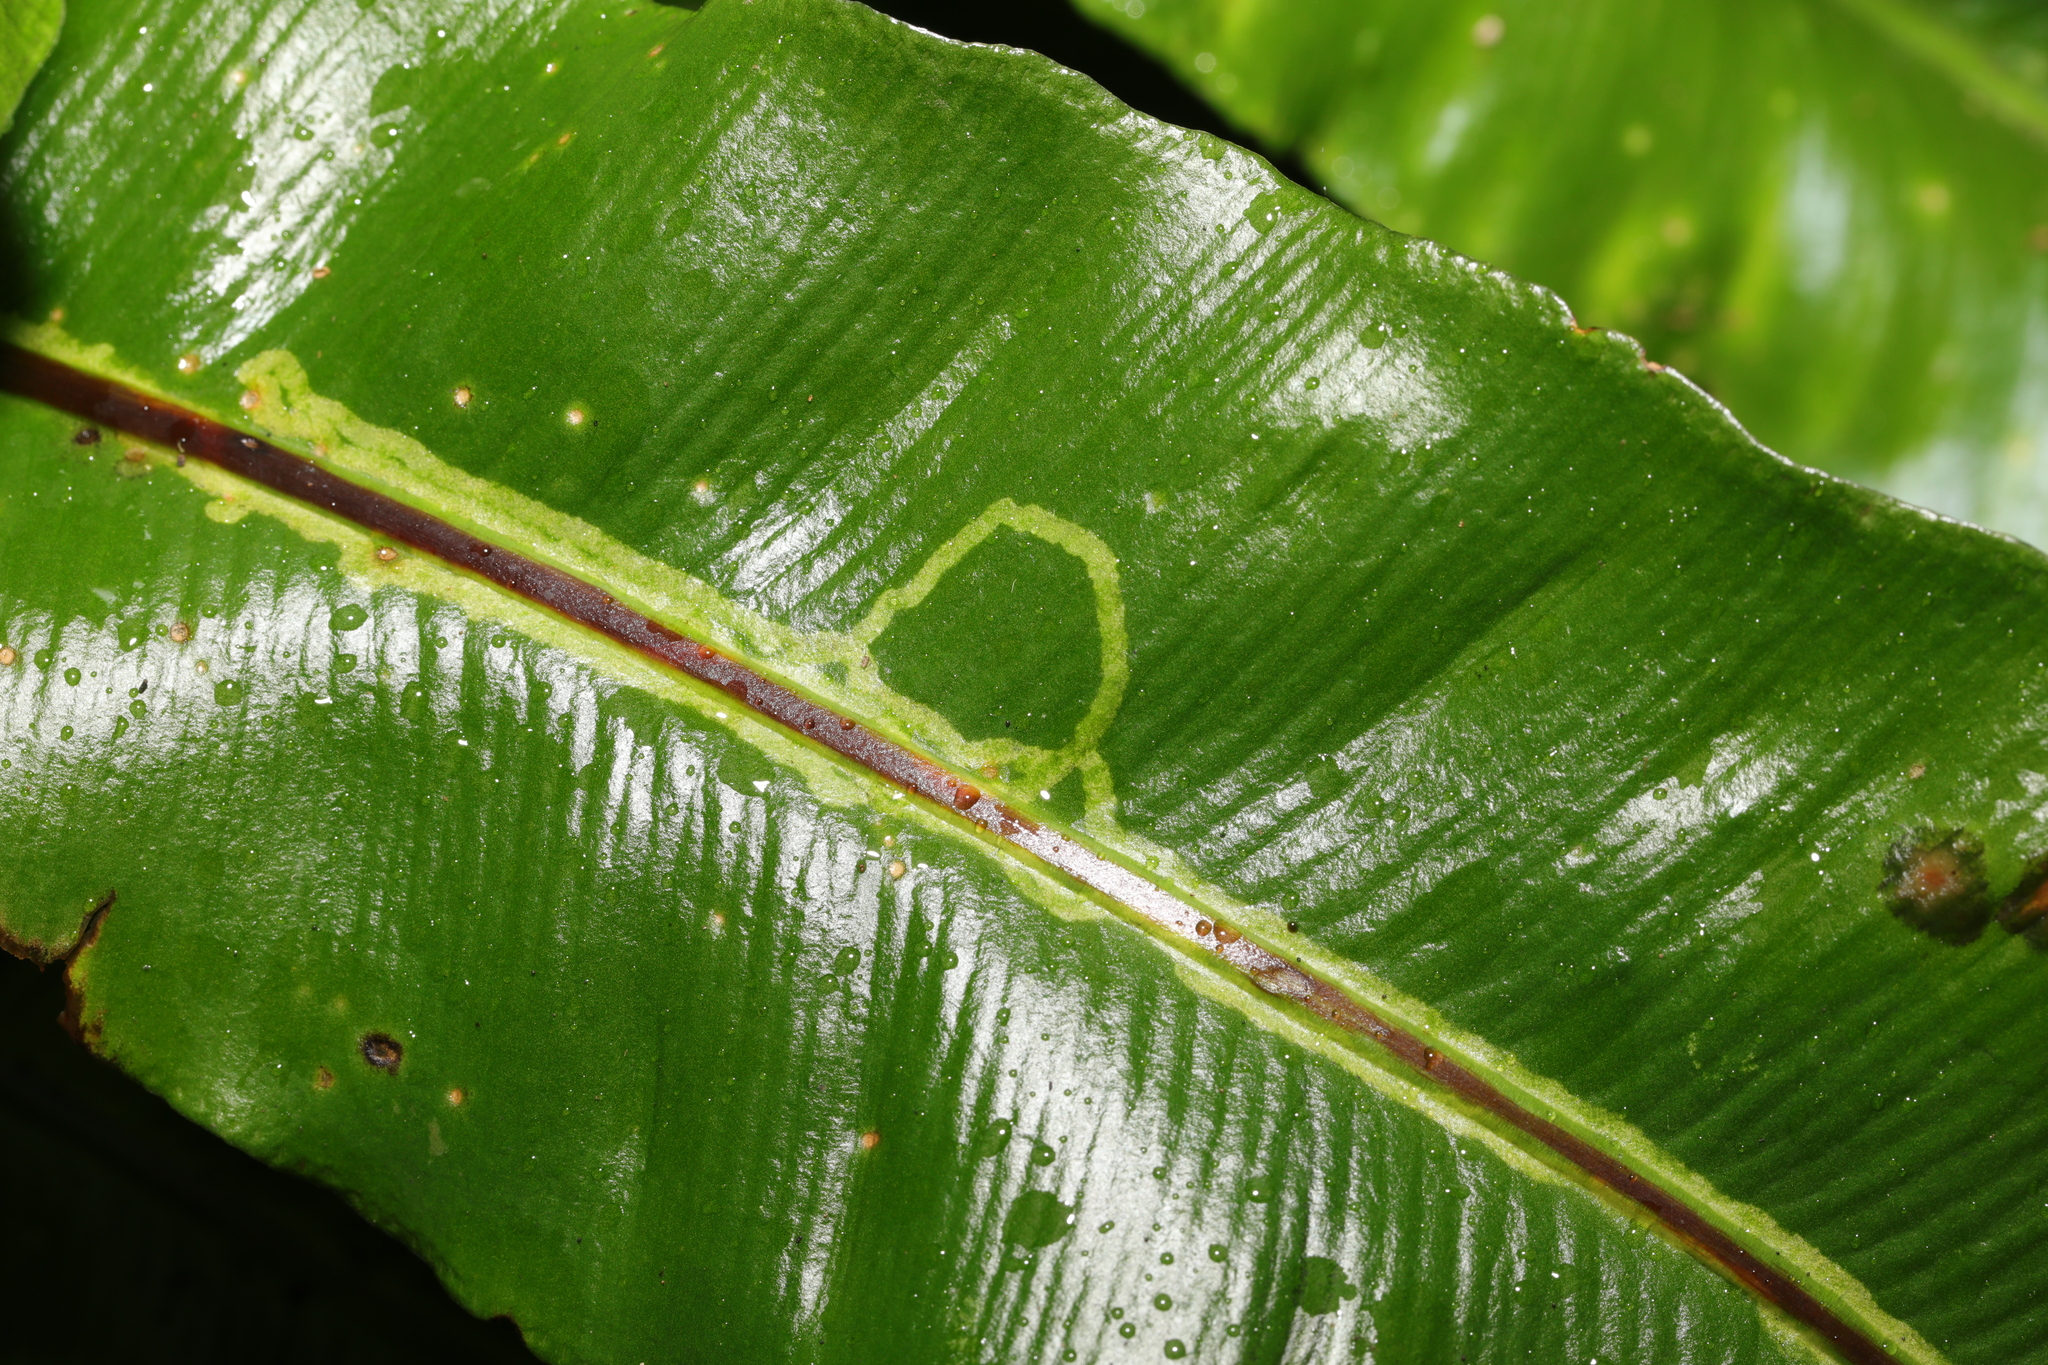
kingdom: Animalia
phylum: Arthropoda
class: Insecta
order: Diptera
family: Agromyzidae
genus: Phytomyza
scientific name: Phytomyza scolopendri
